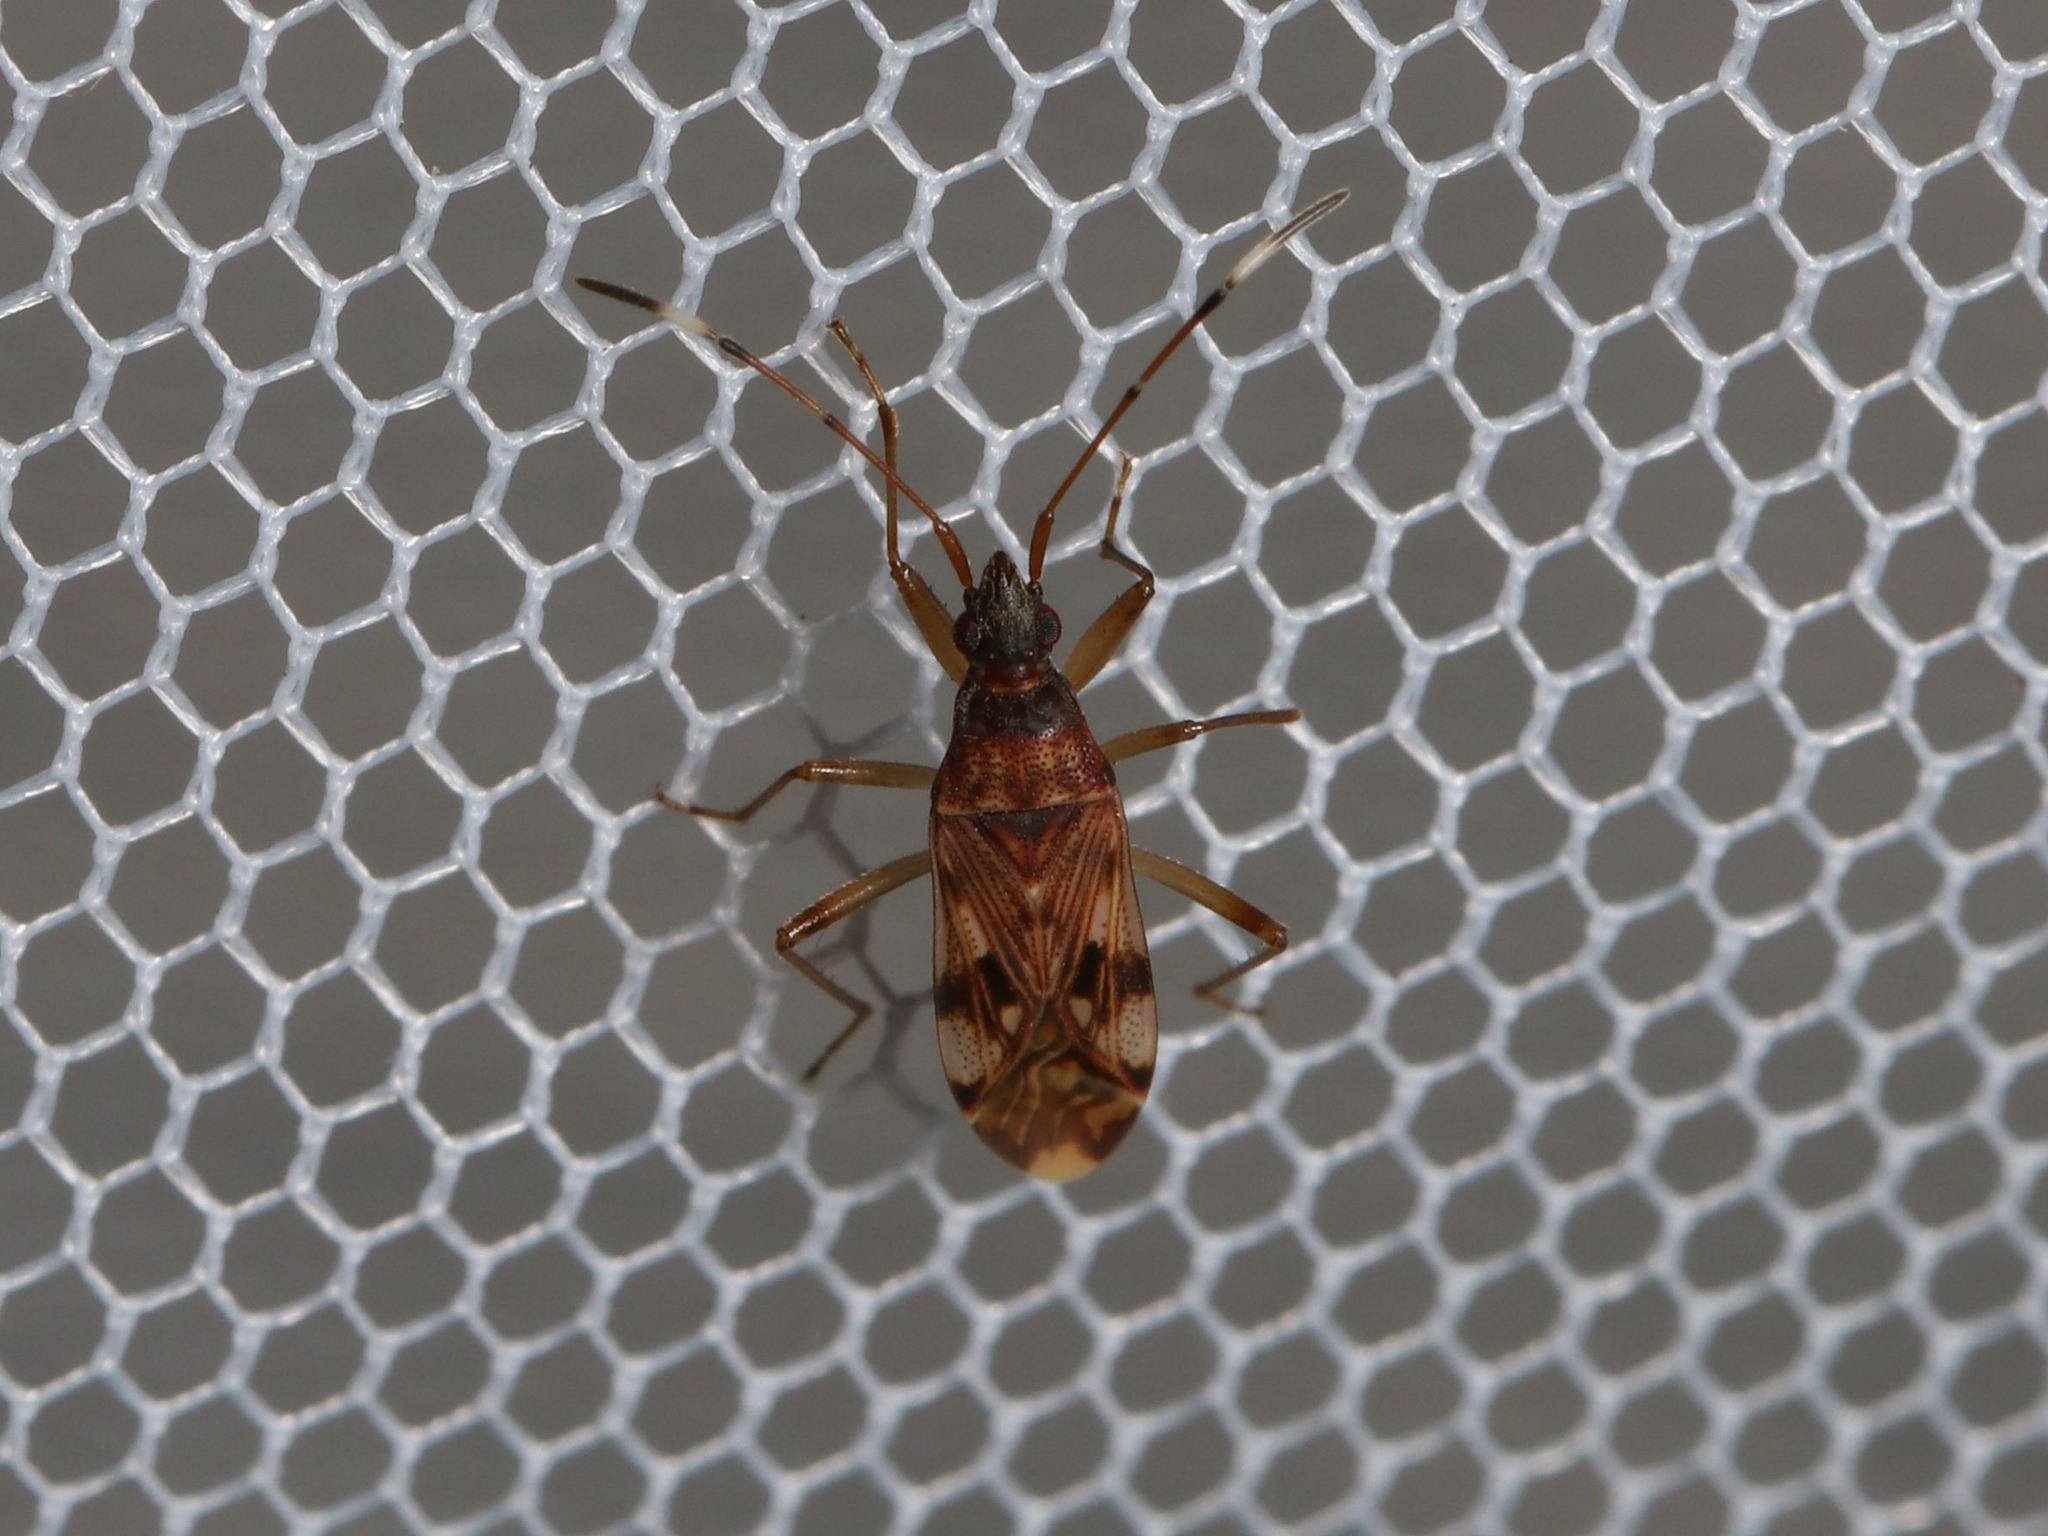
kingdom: Animalia
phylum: Arthropoda
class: Insecta
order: Hemiptera
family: Rhyparochromidae
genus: Ozophora
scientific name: Ozophora picturata
